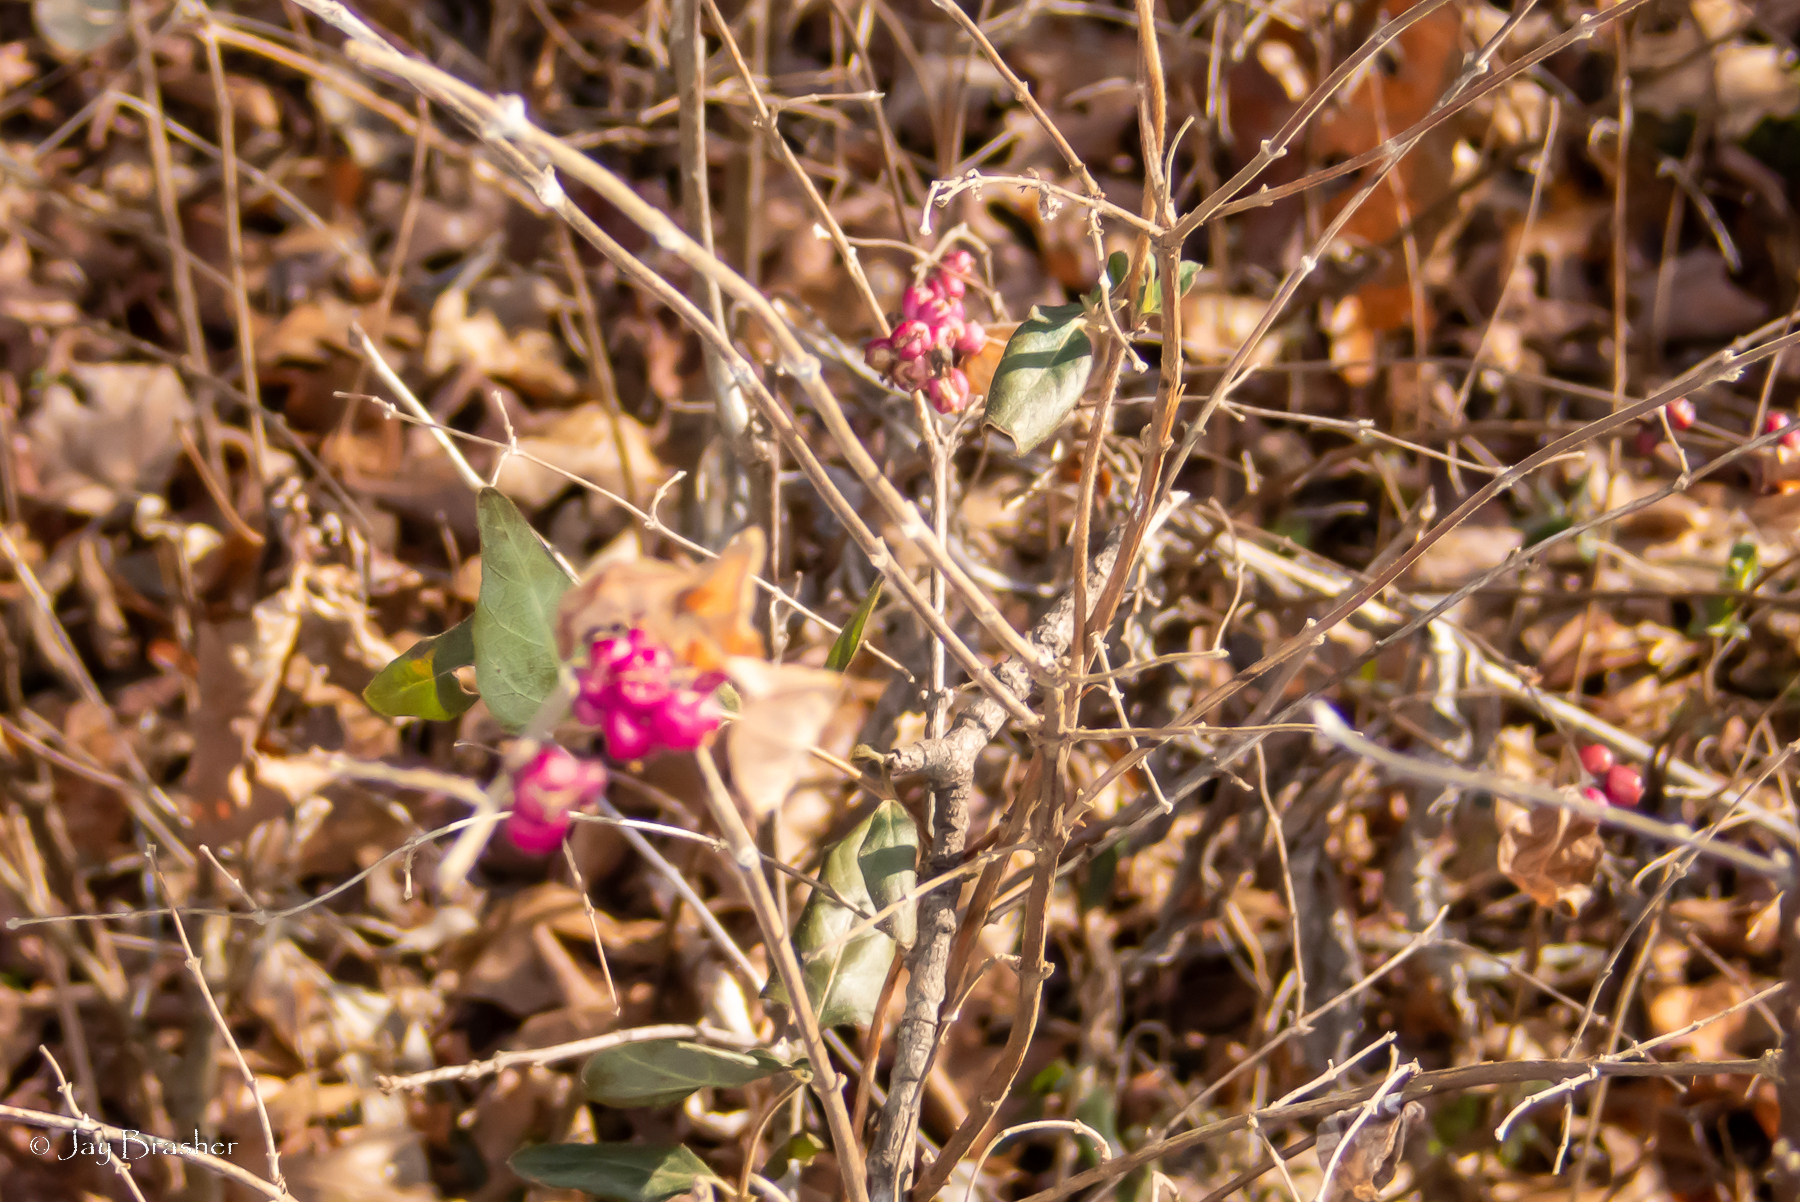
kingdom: Plantae
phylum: Tracheophyta
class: Magnoliopsida
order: Dipsacales
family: Caprifoliaceae
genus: Symphoricarpos
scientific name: Symphoricarpos orbiculatus
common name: Coralberry
